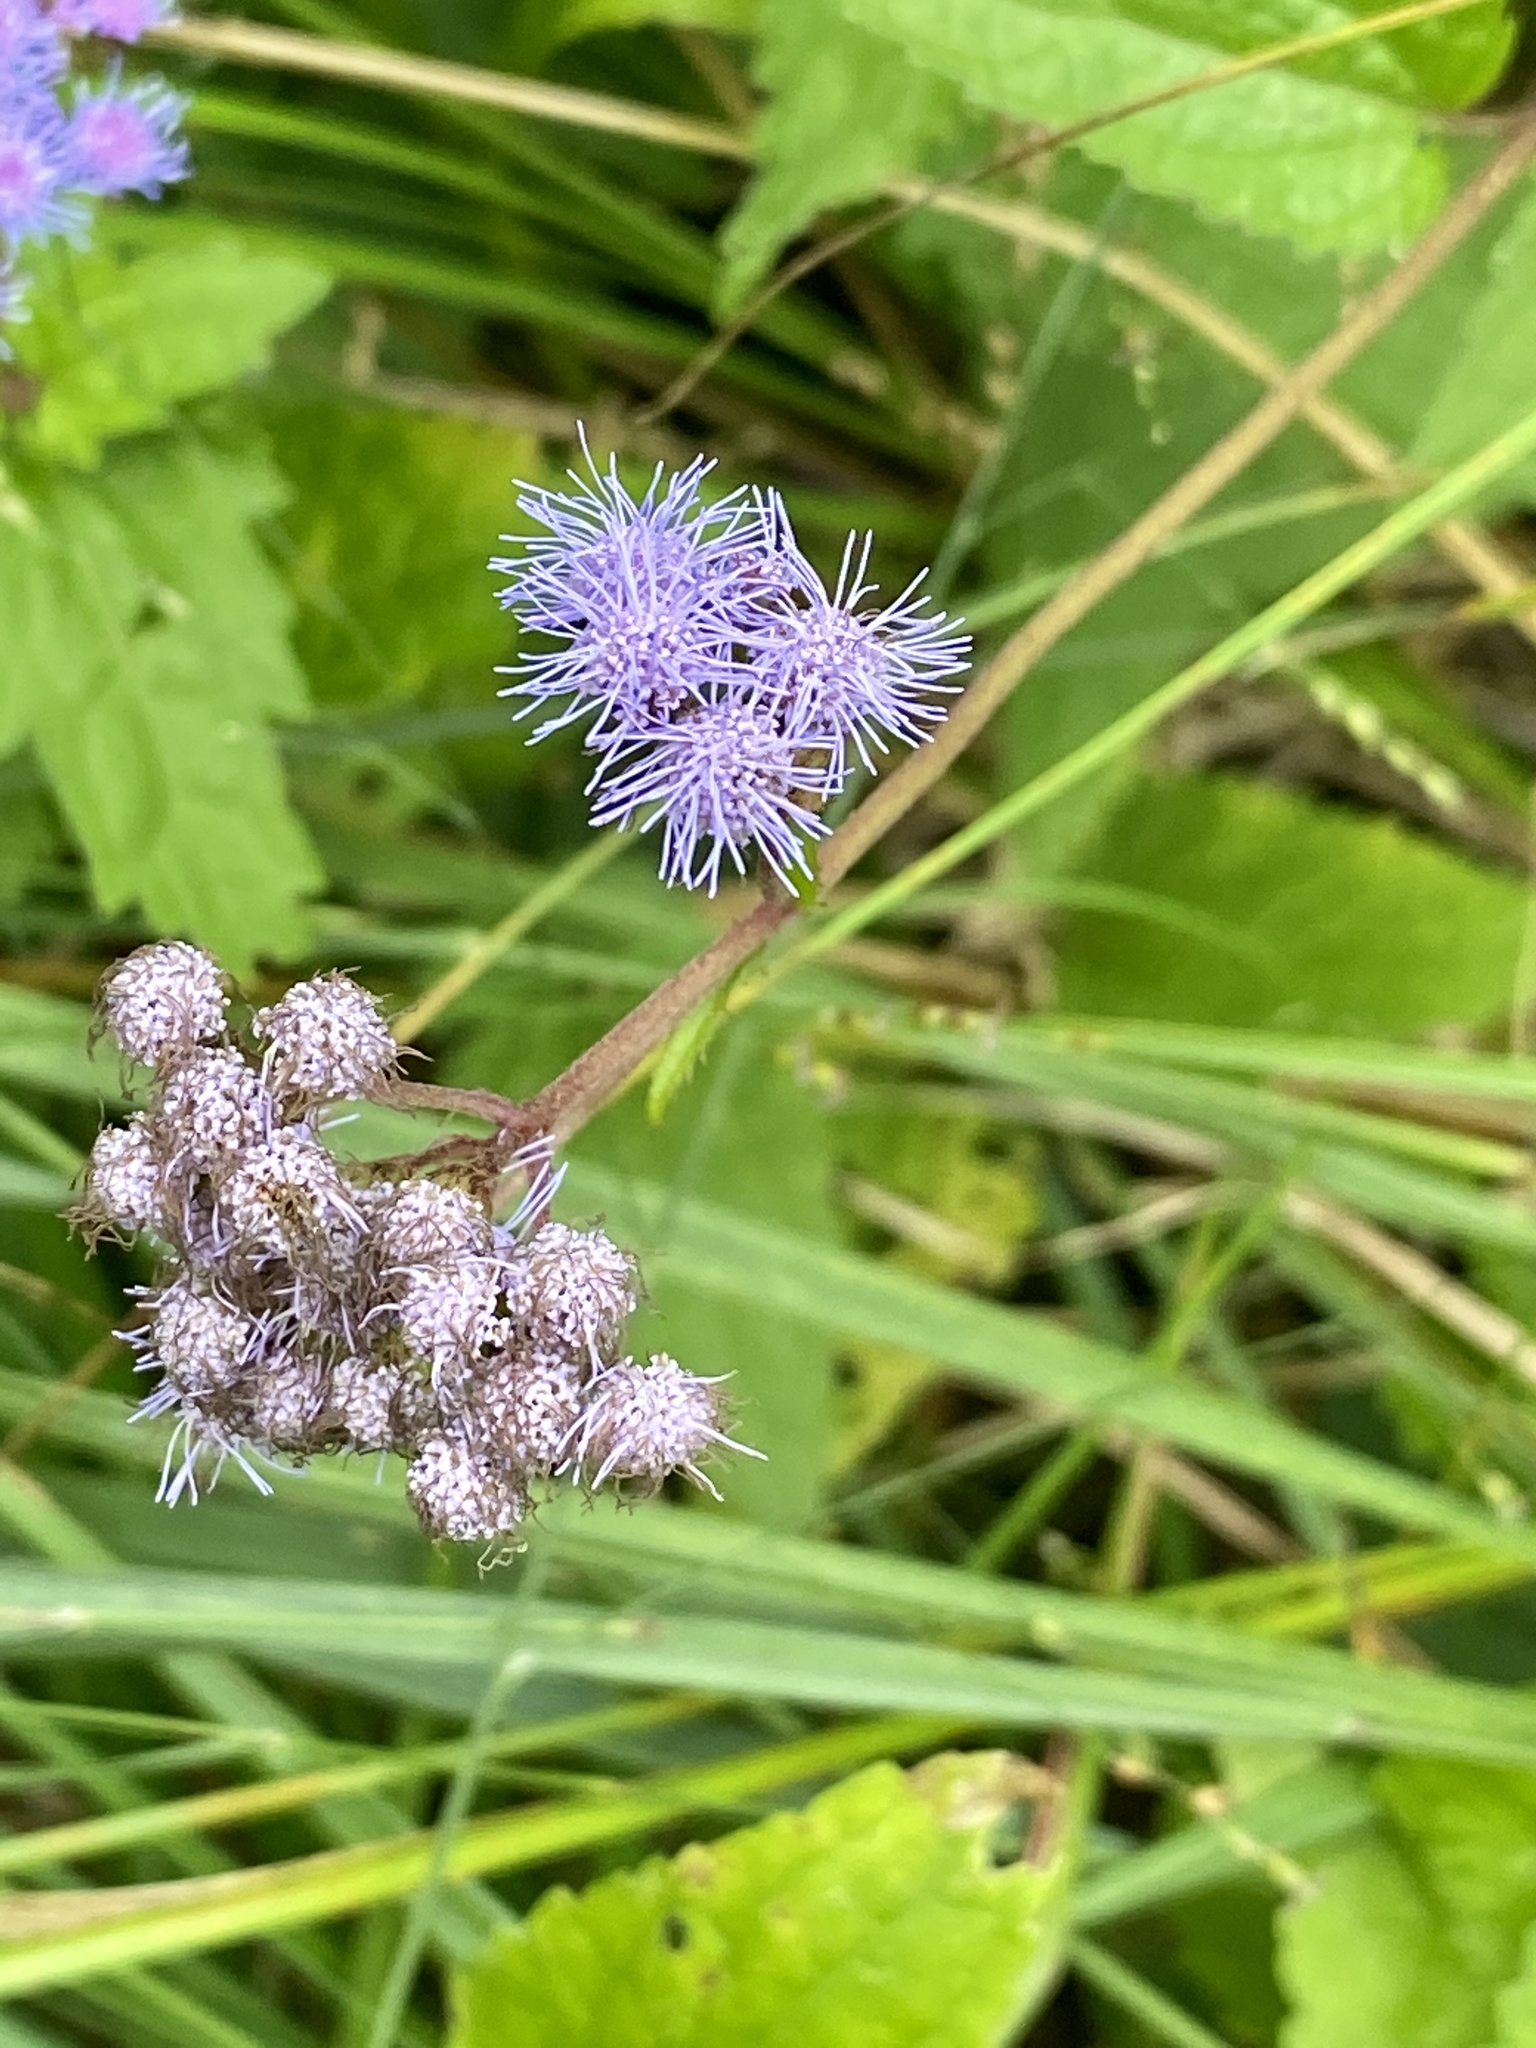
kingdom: Plantae
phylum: Tracheophyta
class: Magnoliopsida
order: Asterales
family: Asteraceae
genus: Conoclinium
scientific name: Conoclinium coelestinum
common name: Blue mistflower
